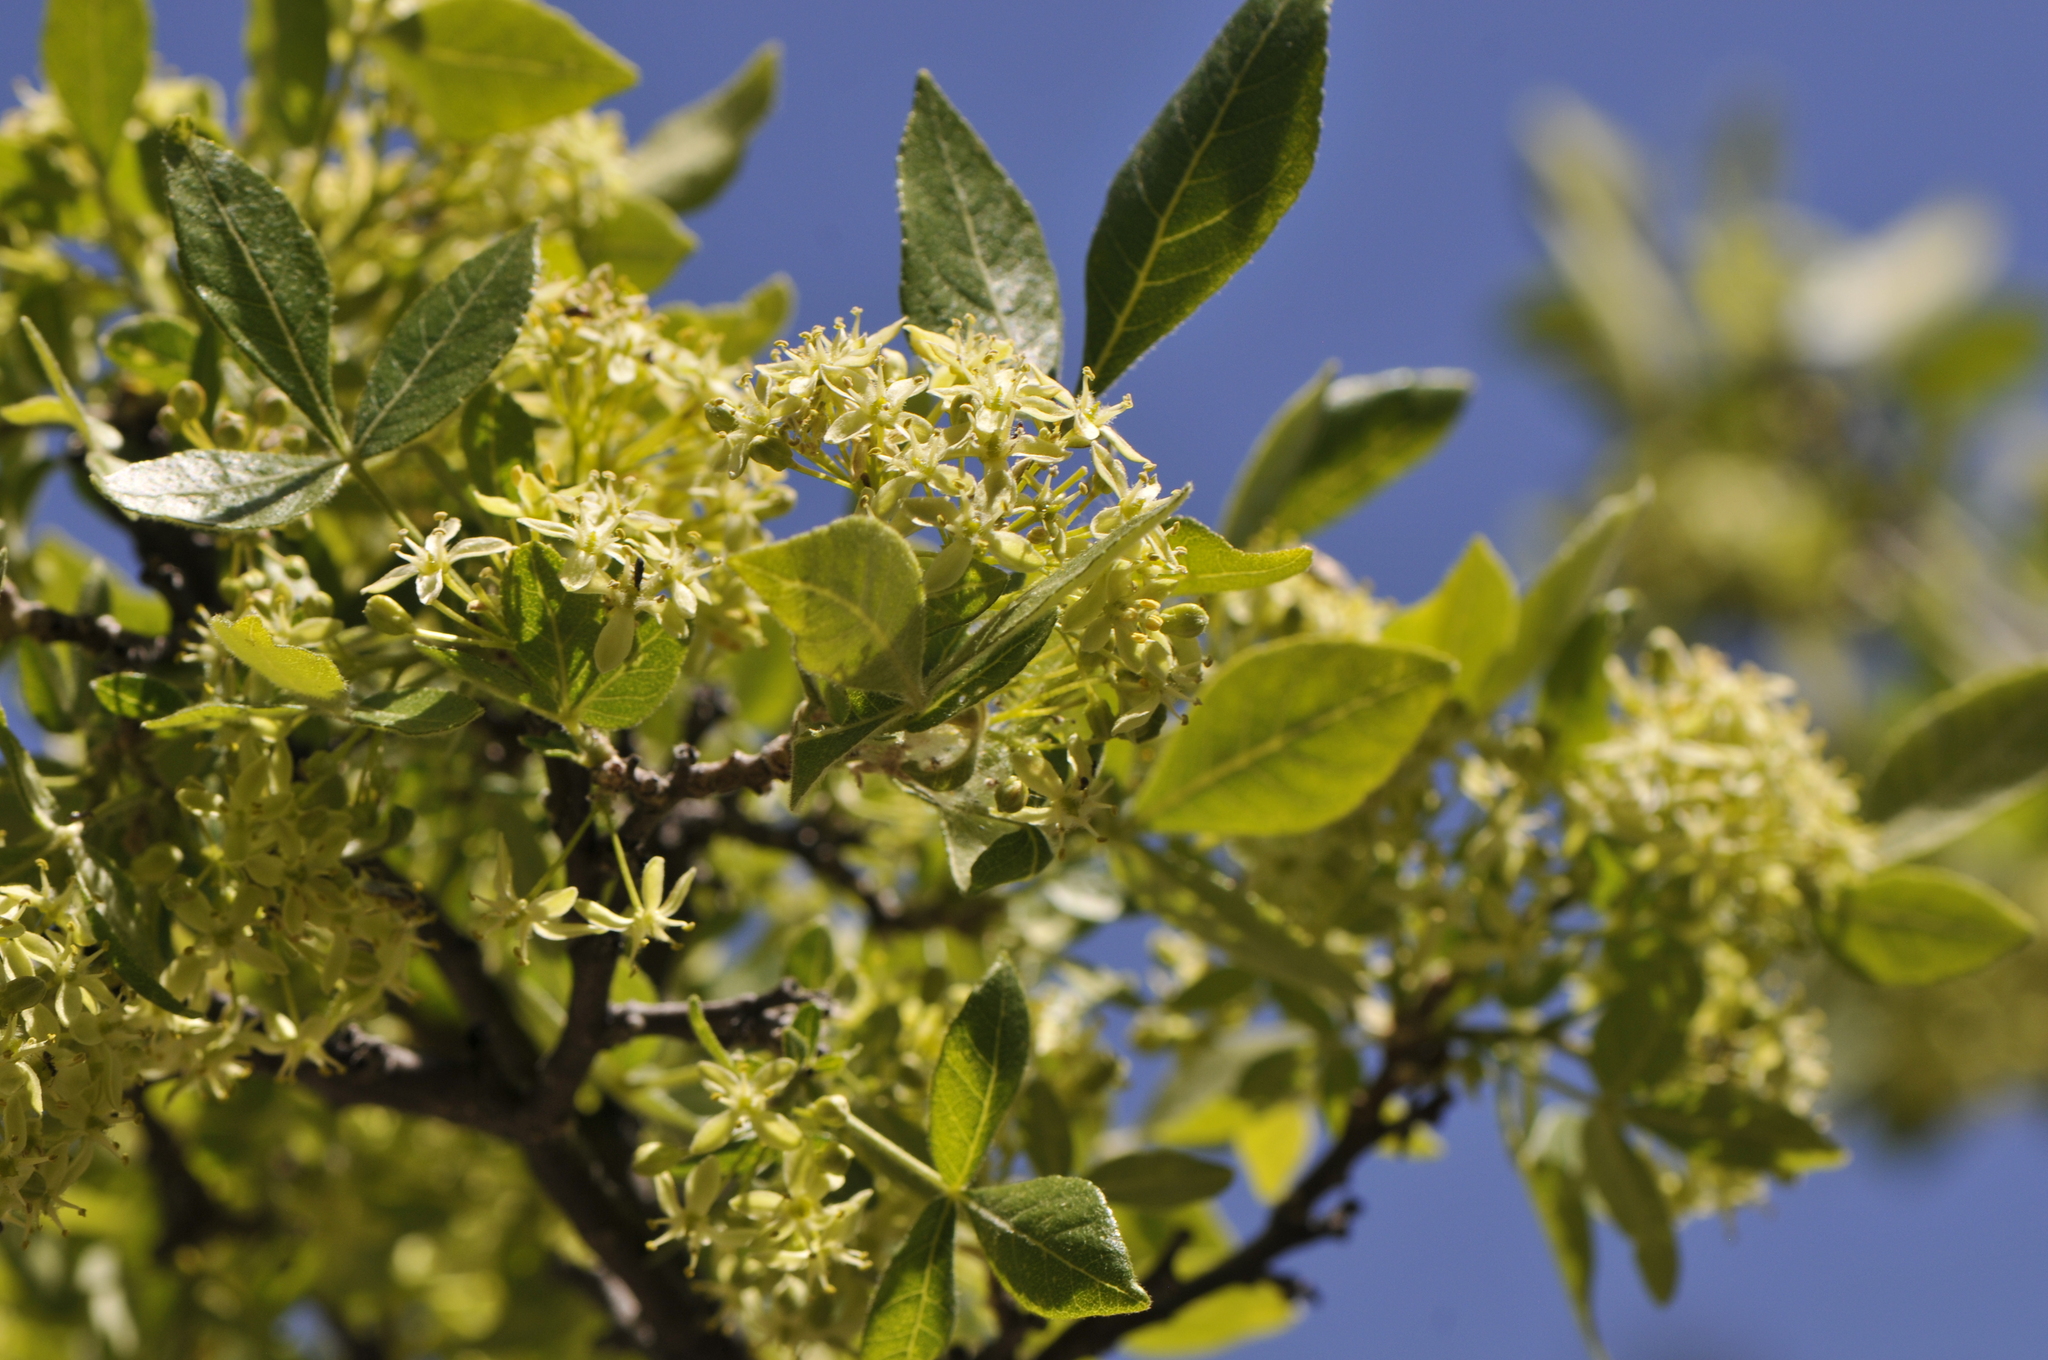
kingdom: Plantae
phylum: Tracheophyta
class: Magnoliopsida
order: Sapindales
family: Rutaceae
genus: Ptelea
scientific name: Ptelea trifoliata
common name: Common hop-tree
